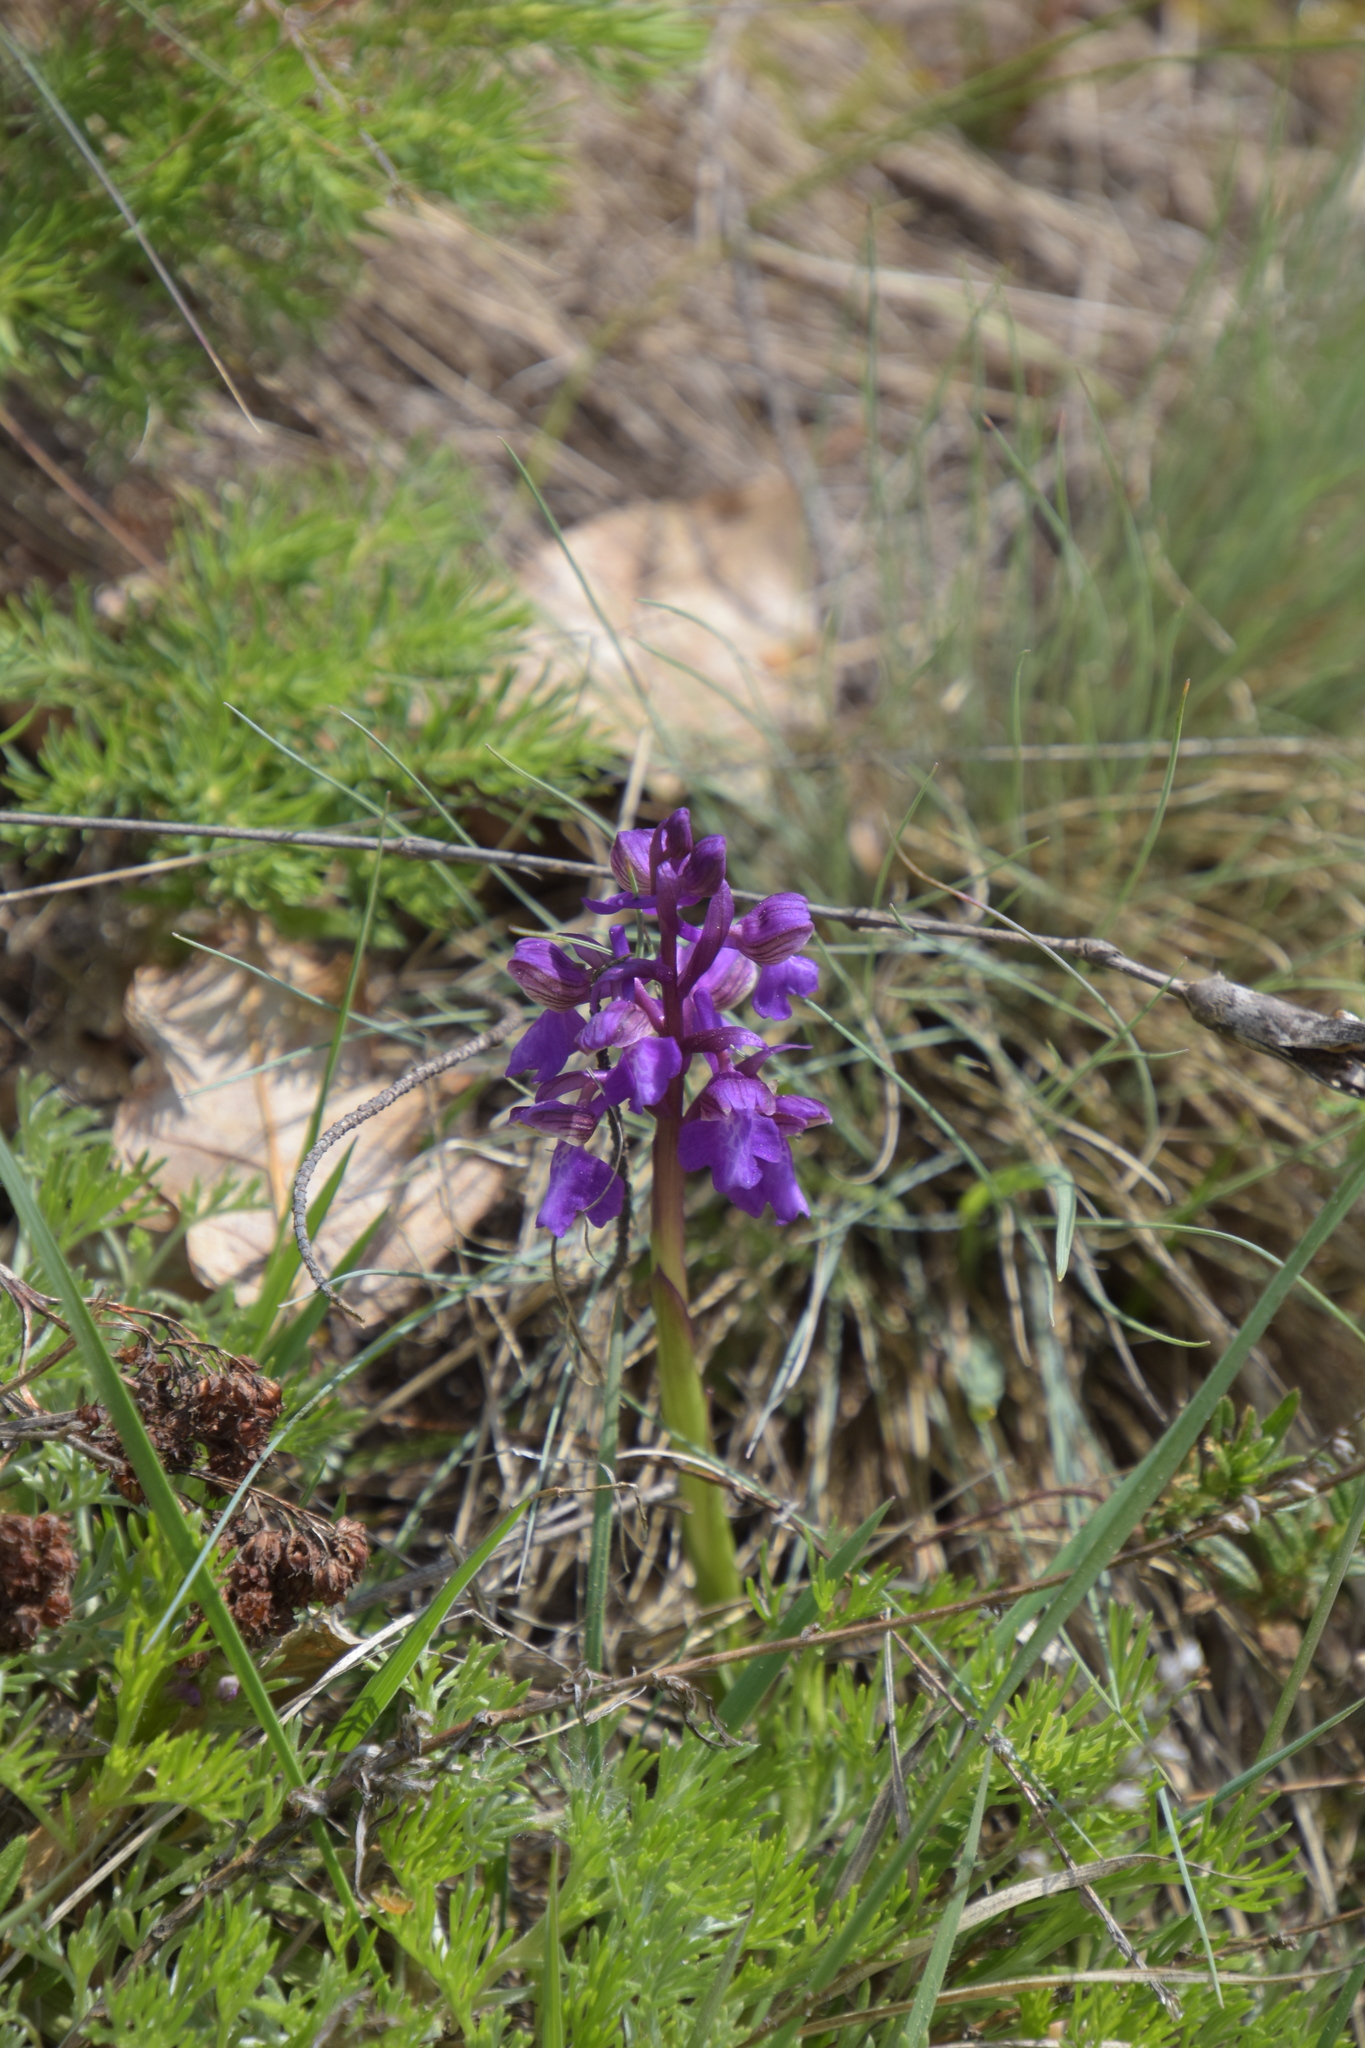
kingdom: Plantae
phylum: Tracheophyta
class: Liliopsida
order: Asparagales
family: Orchidaceae
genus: Anacamptis
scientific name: Anacamptis morio
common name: Green-winged orchid
